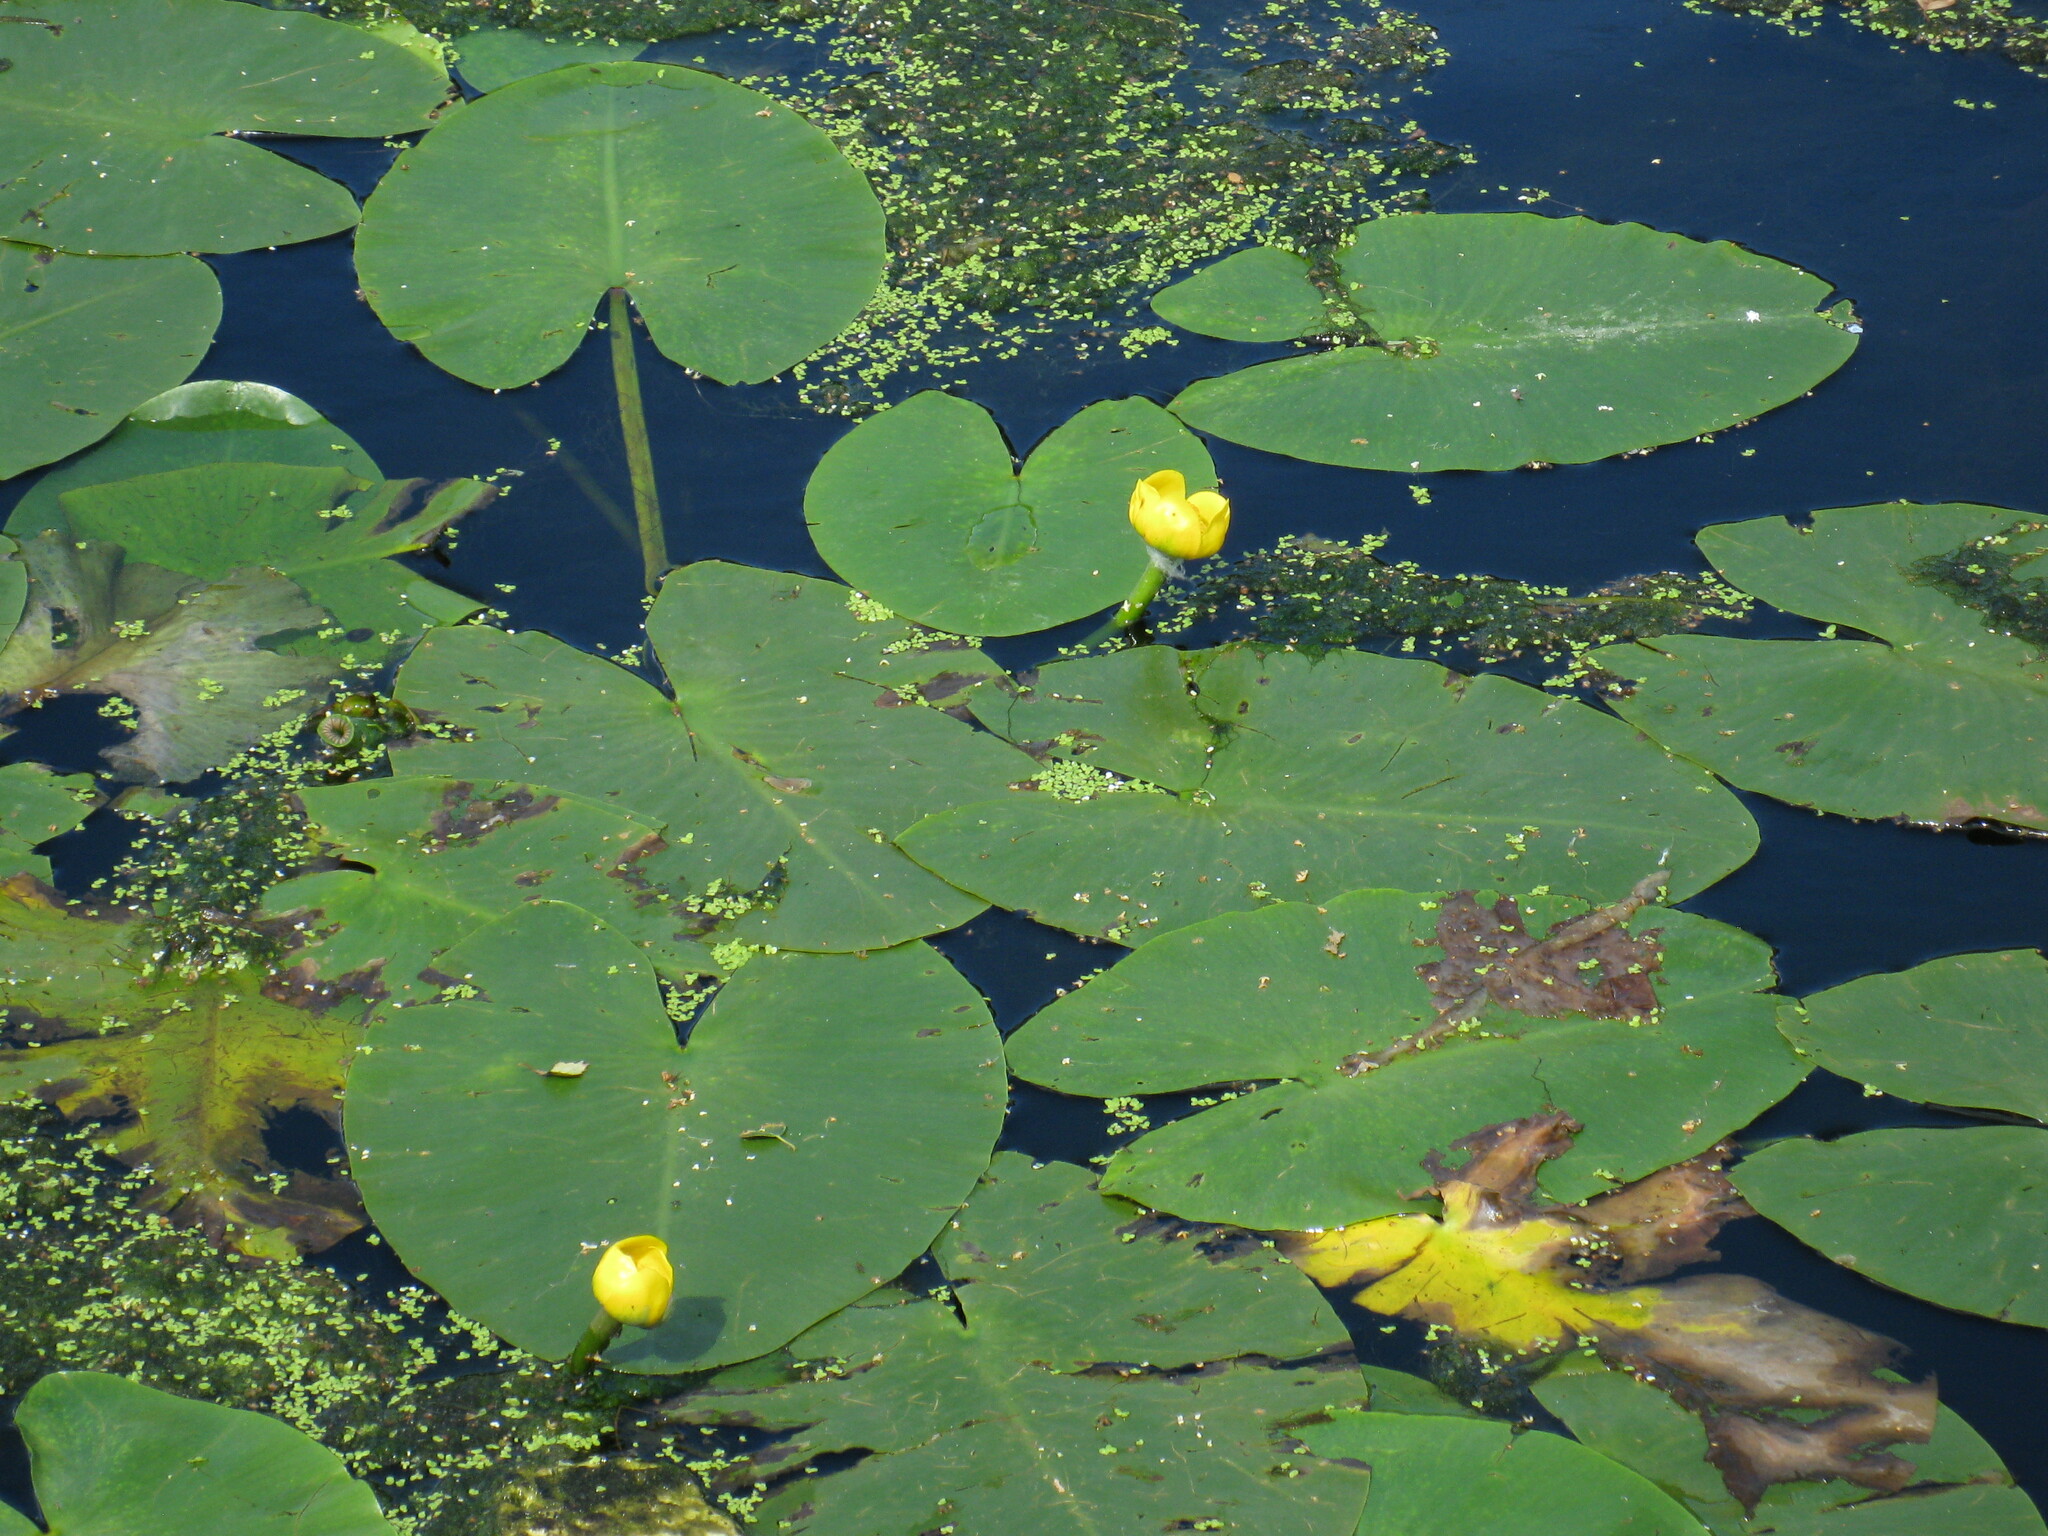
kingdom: Plantae
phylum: Tracheophyta
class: Magnoliopsida
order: Nymphaeales
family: Nymphaeaceae
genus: Nuphar
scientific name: Nuphar lutea
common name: Yellow water-lily
